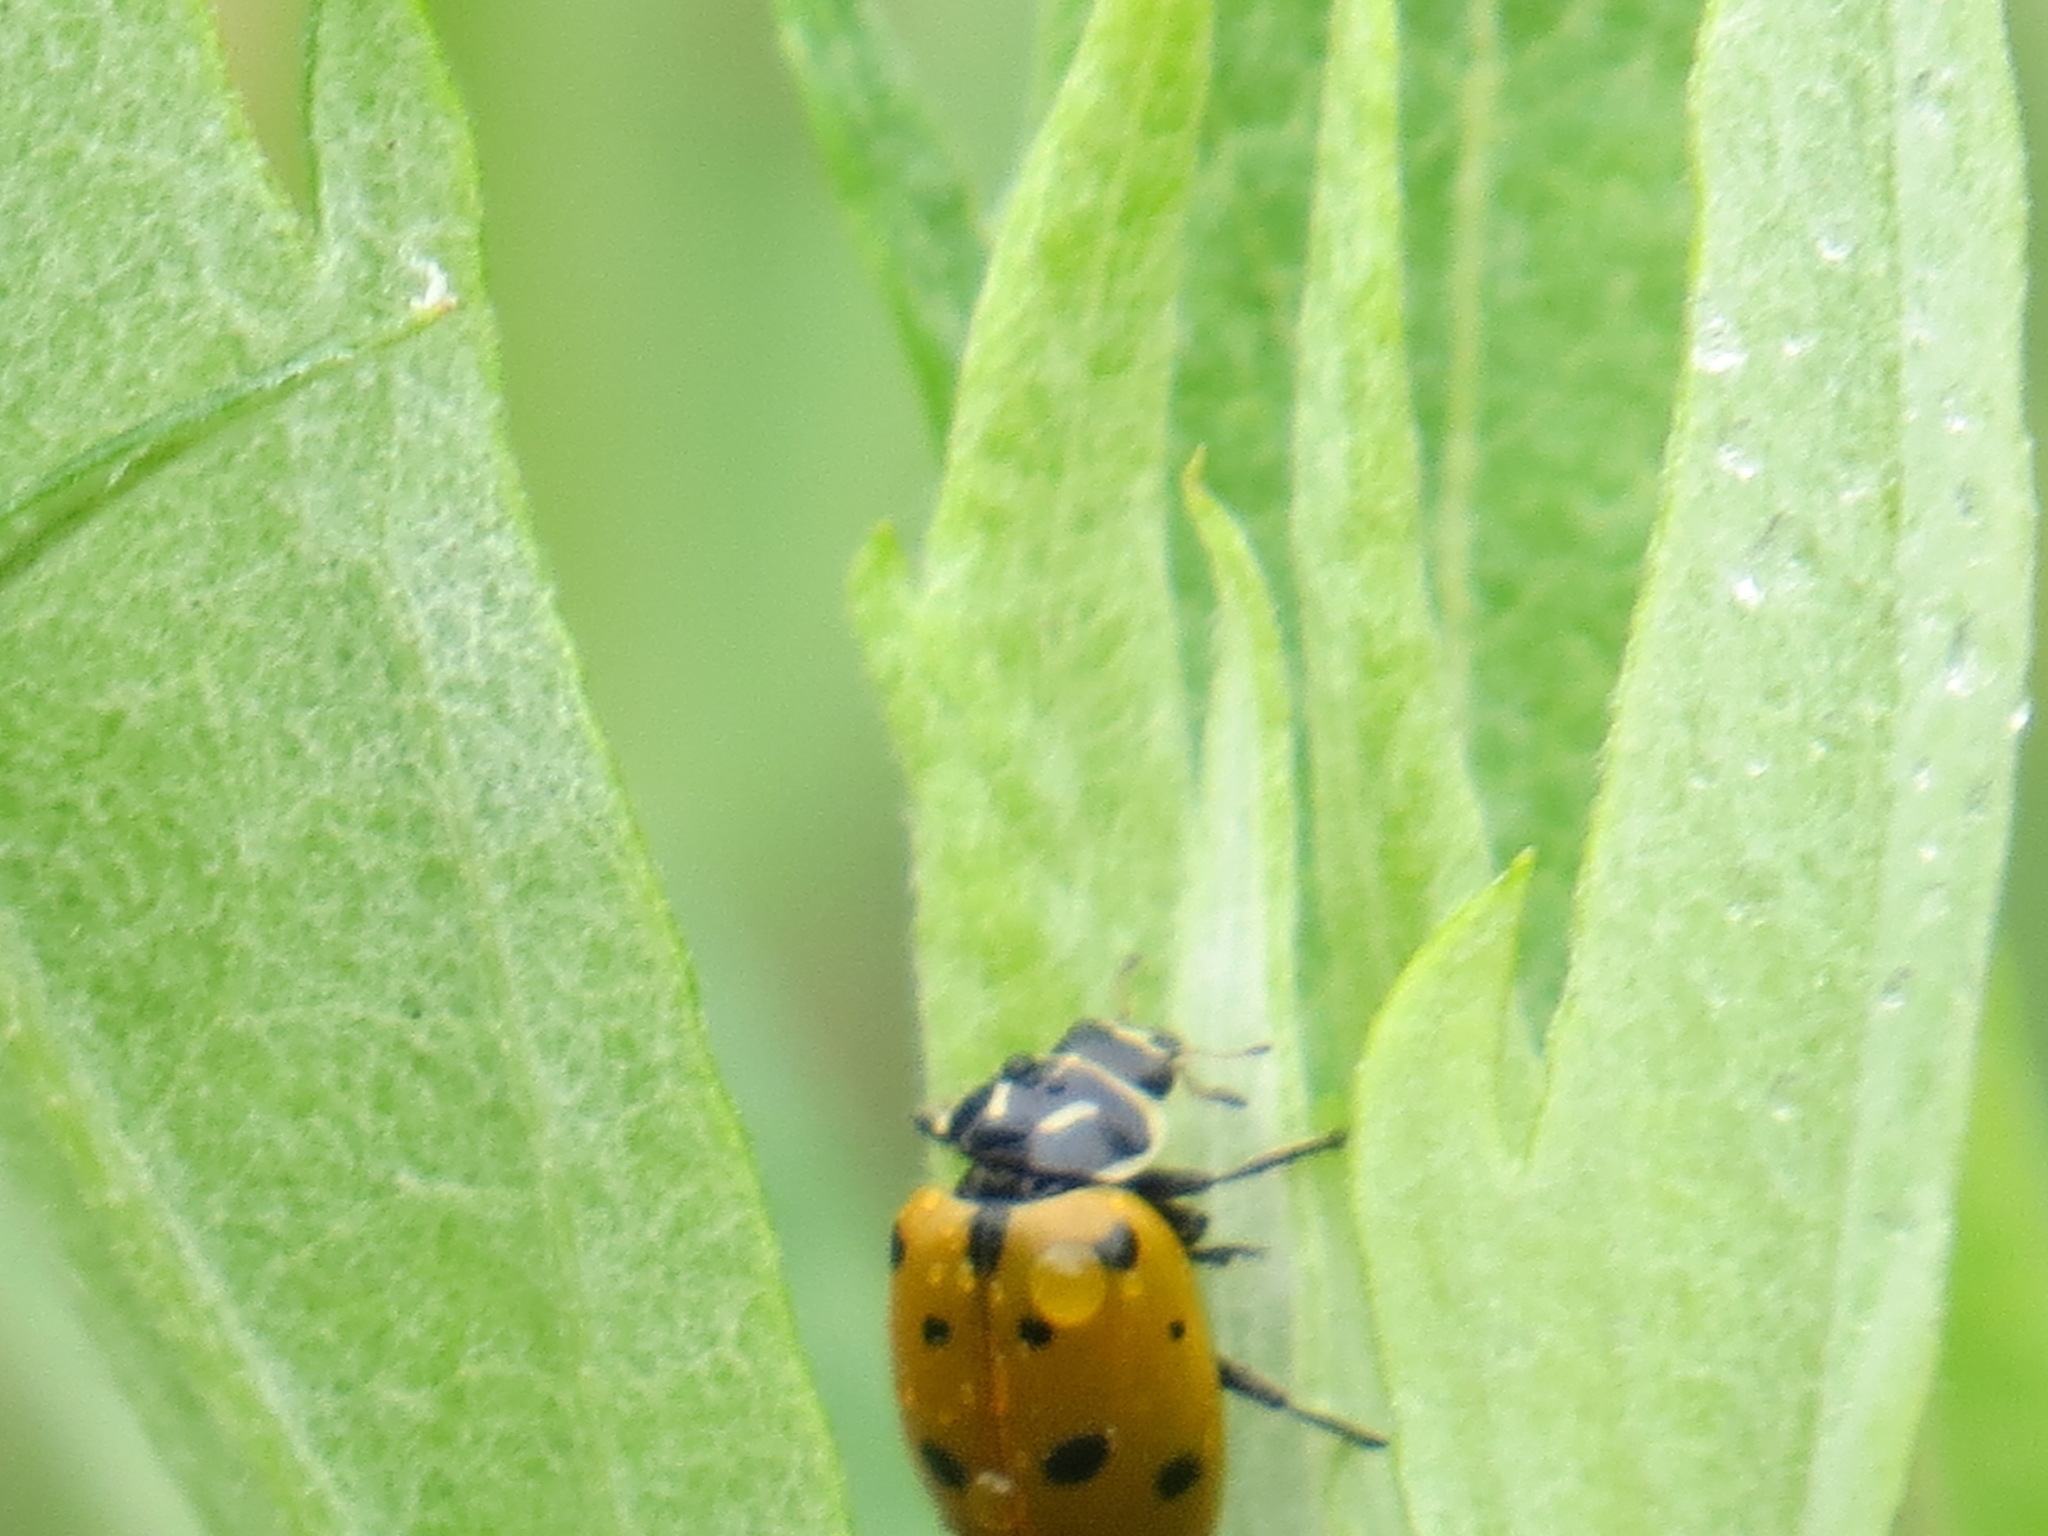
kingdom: Animalia
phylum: Arthropoda
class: Insecta
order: Coleoptera
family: Coccinellidae
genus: Hippodamia
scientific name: Hippodamia convergens
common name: Convergent lady beetle
